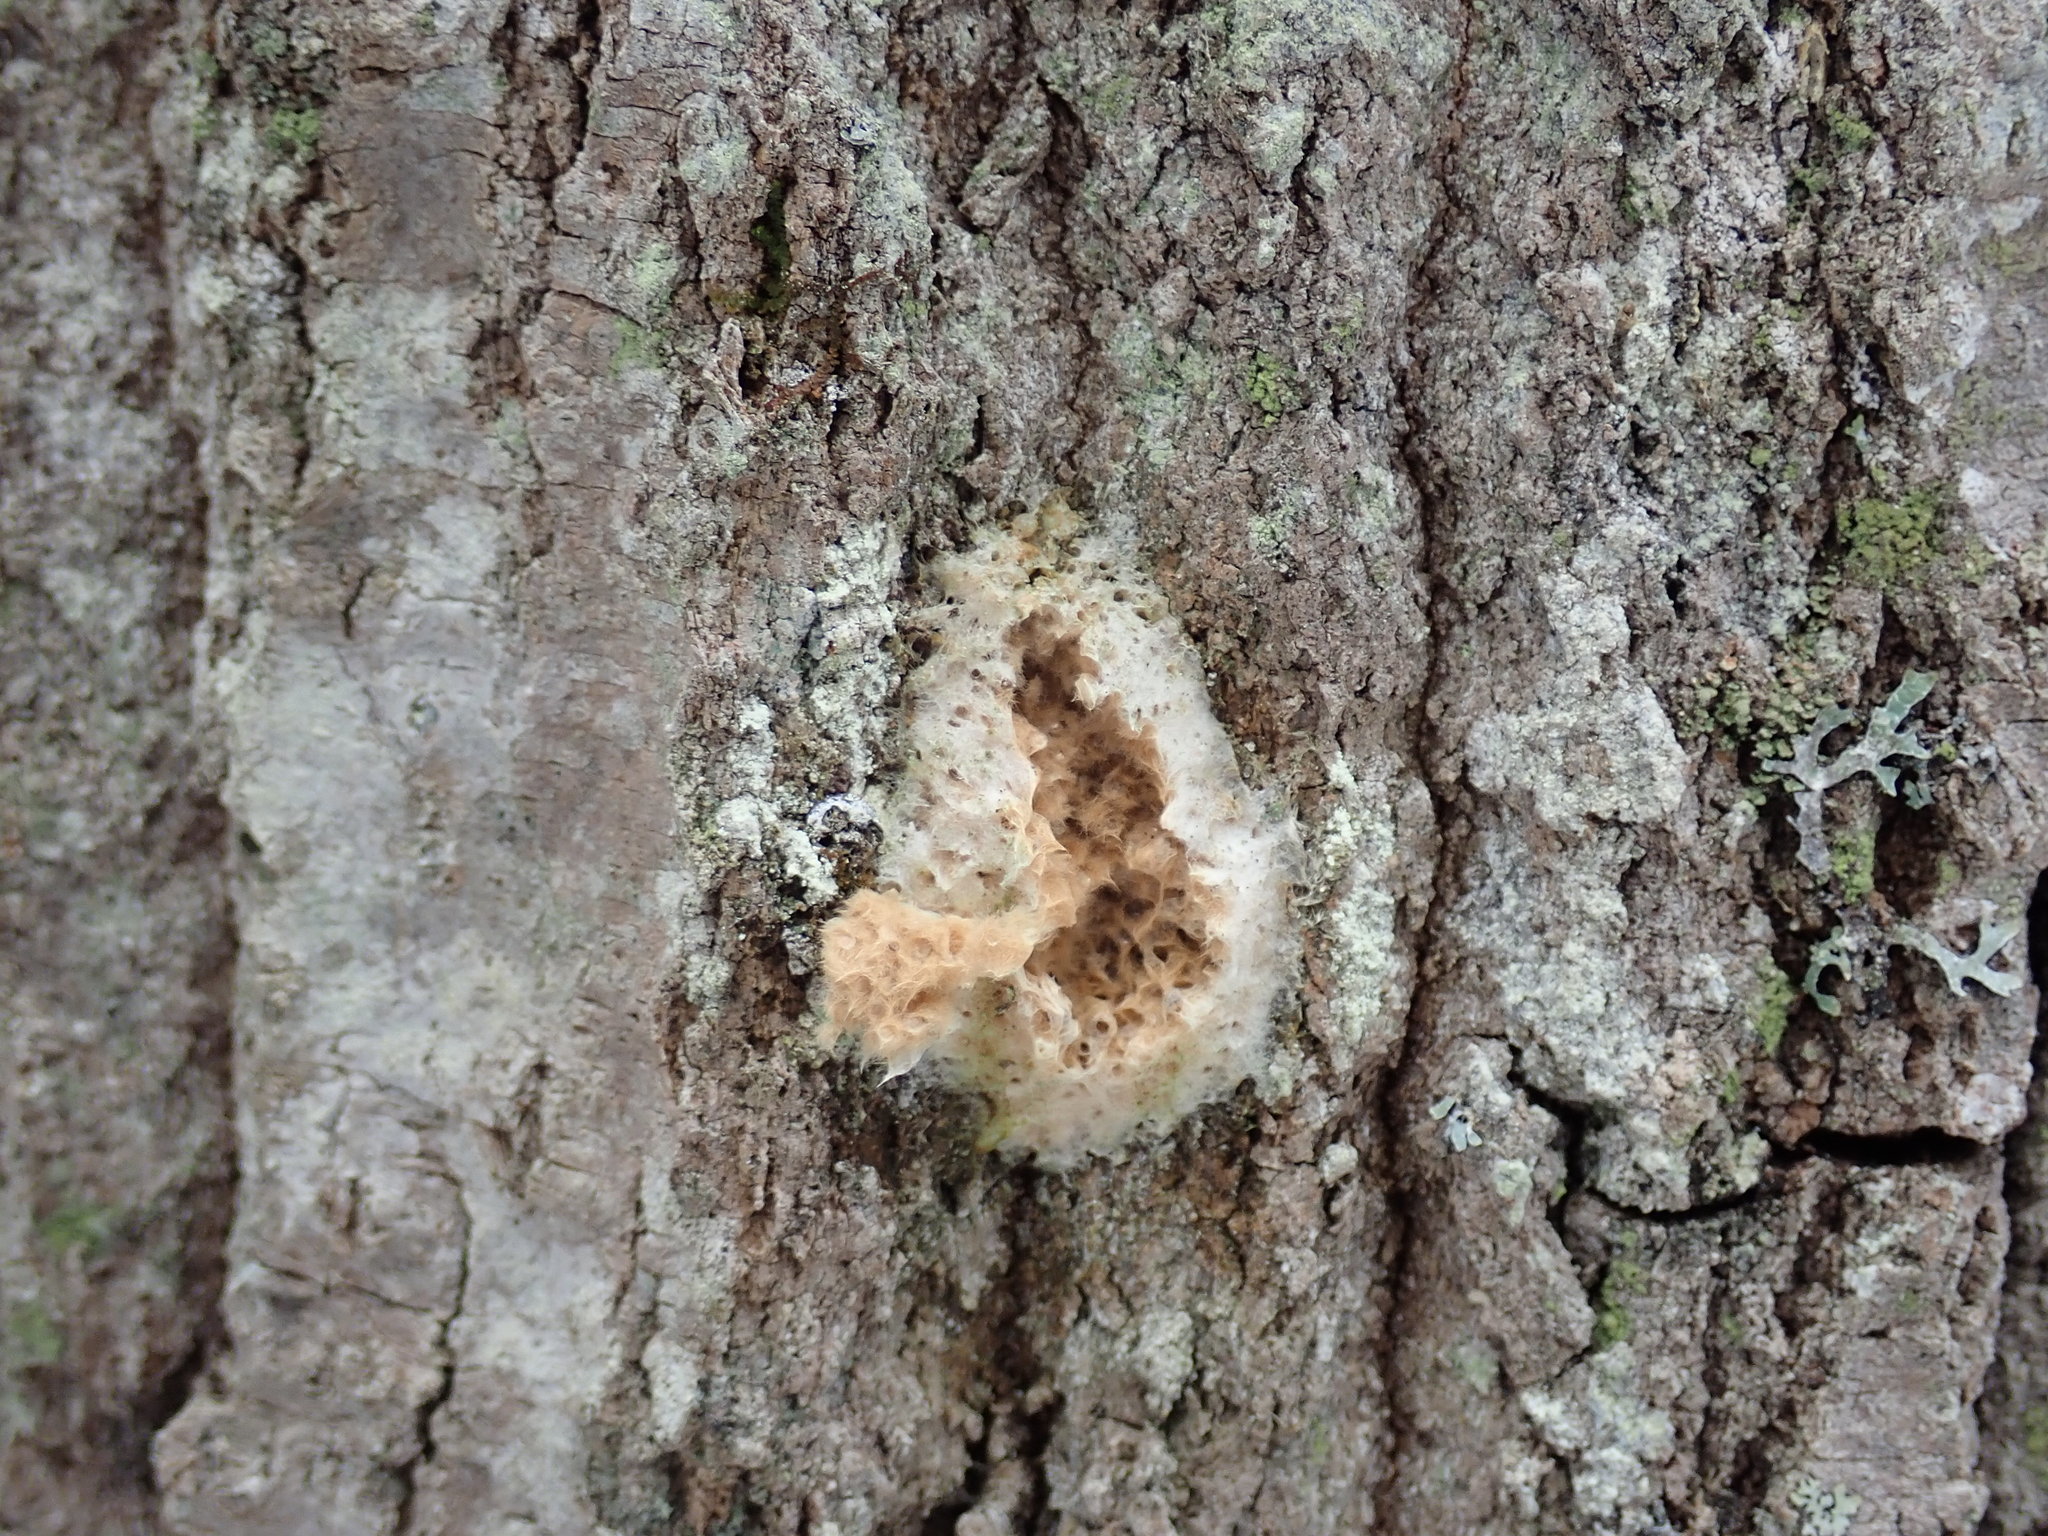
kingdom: Animalia
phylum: Arthropoda
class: Insecta
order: Lepidoptera
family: Erebidae
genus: Lymantria
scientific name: Lymantria dispar
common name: Gypsy moth
